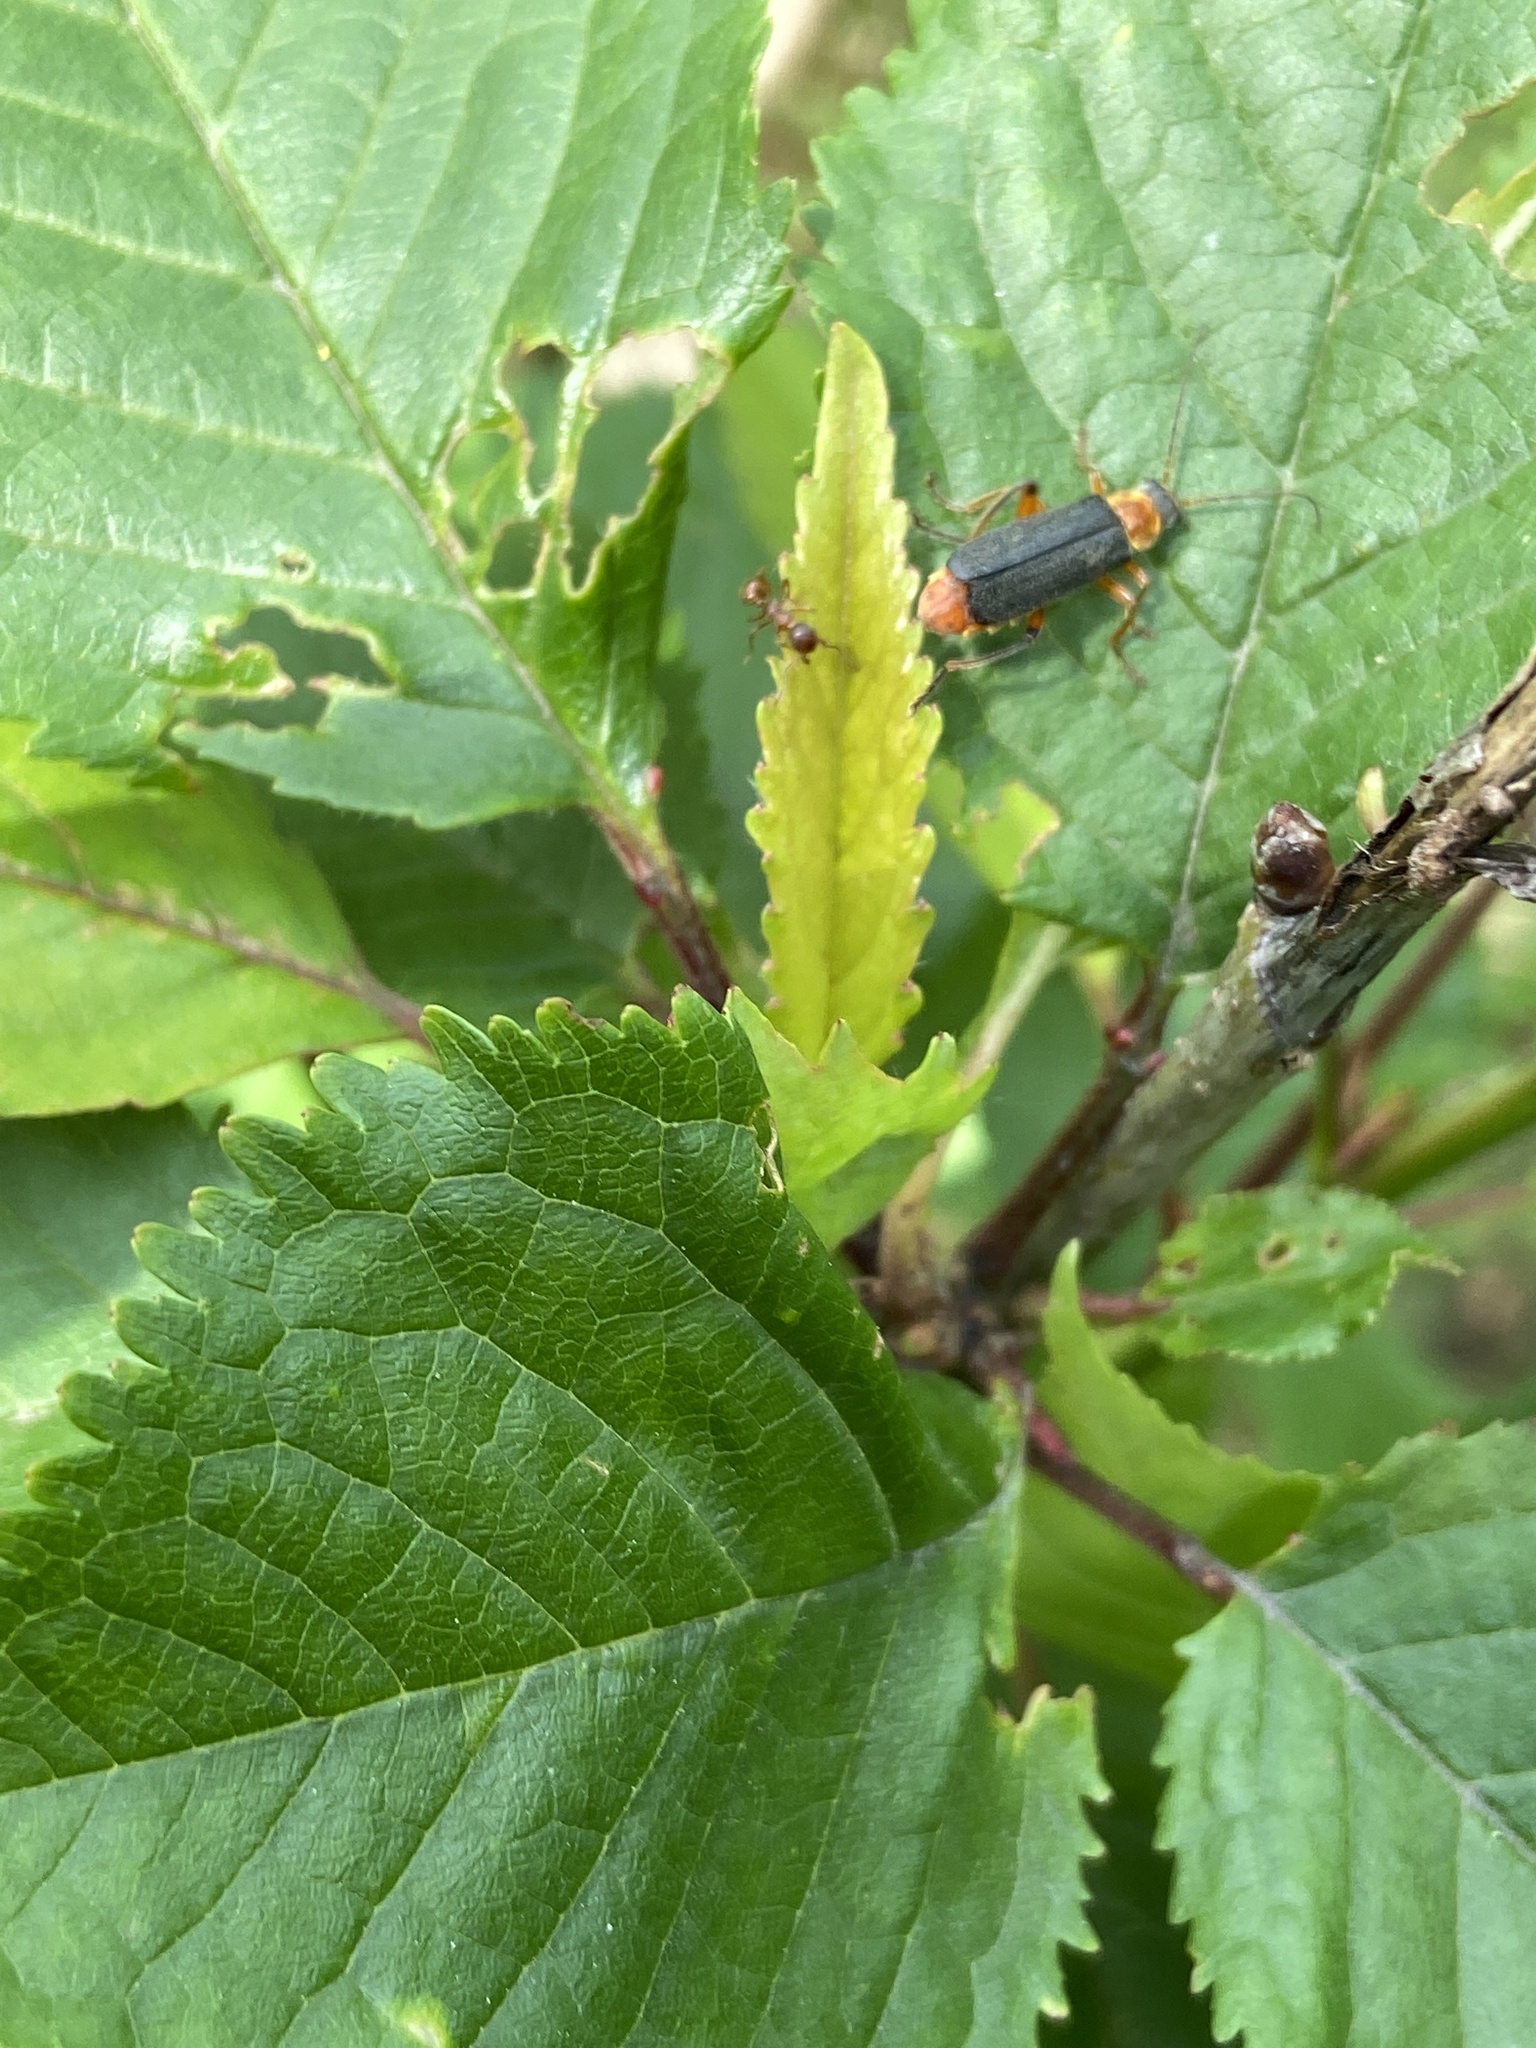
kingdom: Animalia
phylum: Arthropoda
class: Insecta
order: Coleoptera
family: Cantharidae
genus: Cantharis
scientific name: Cantharis nigricans
